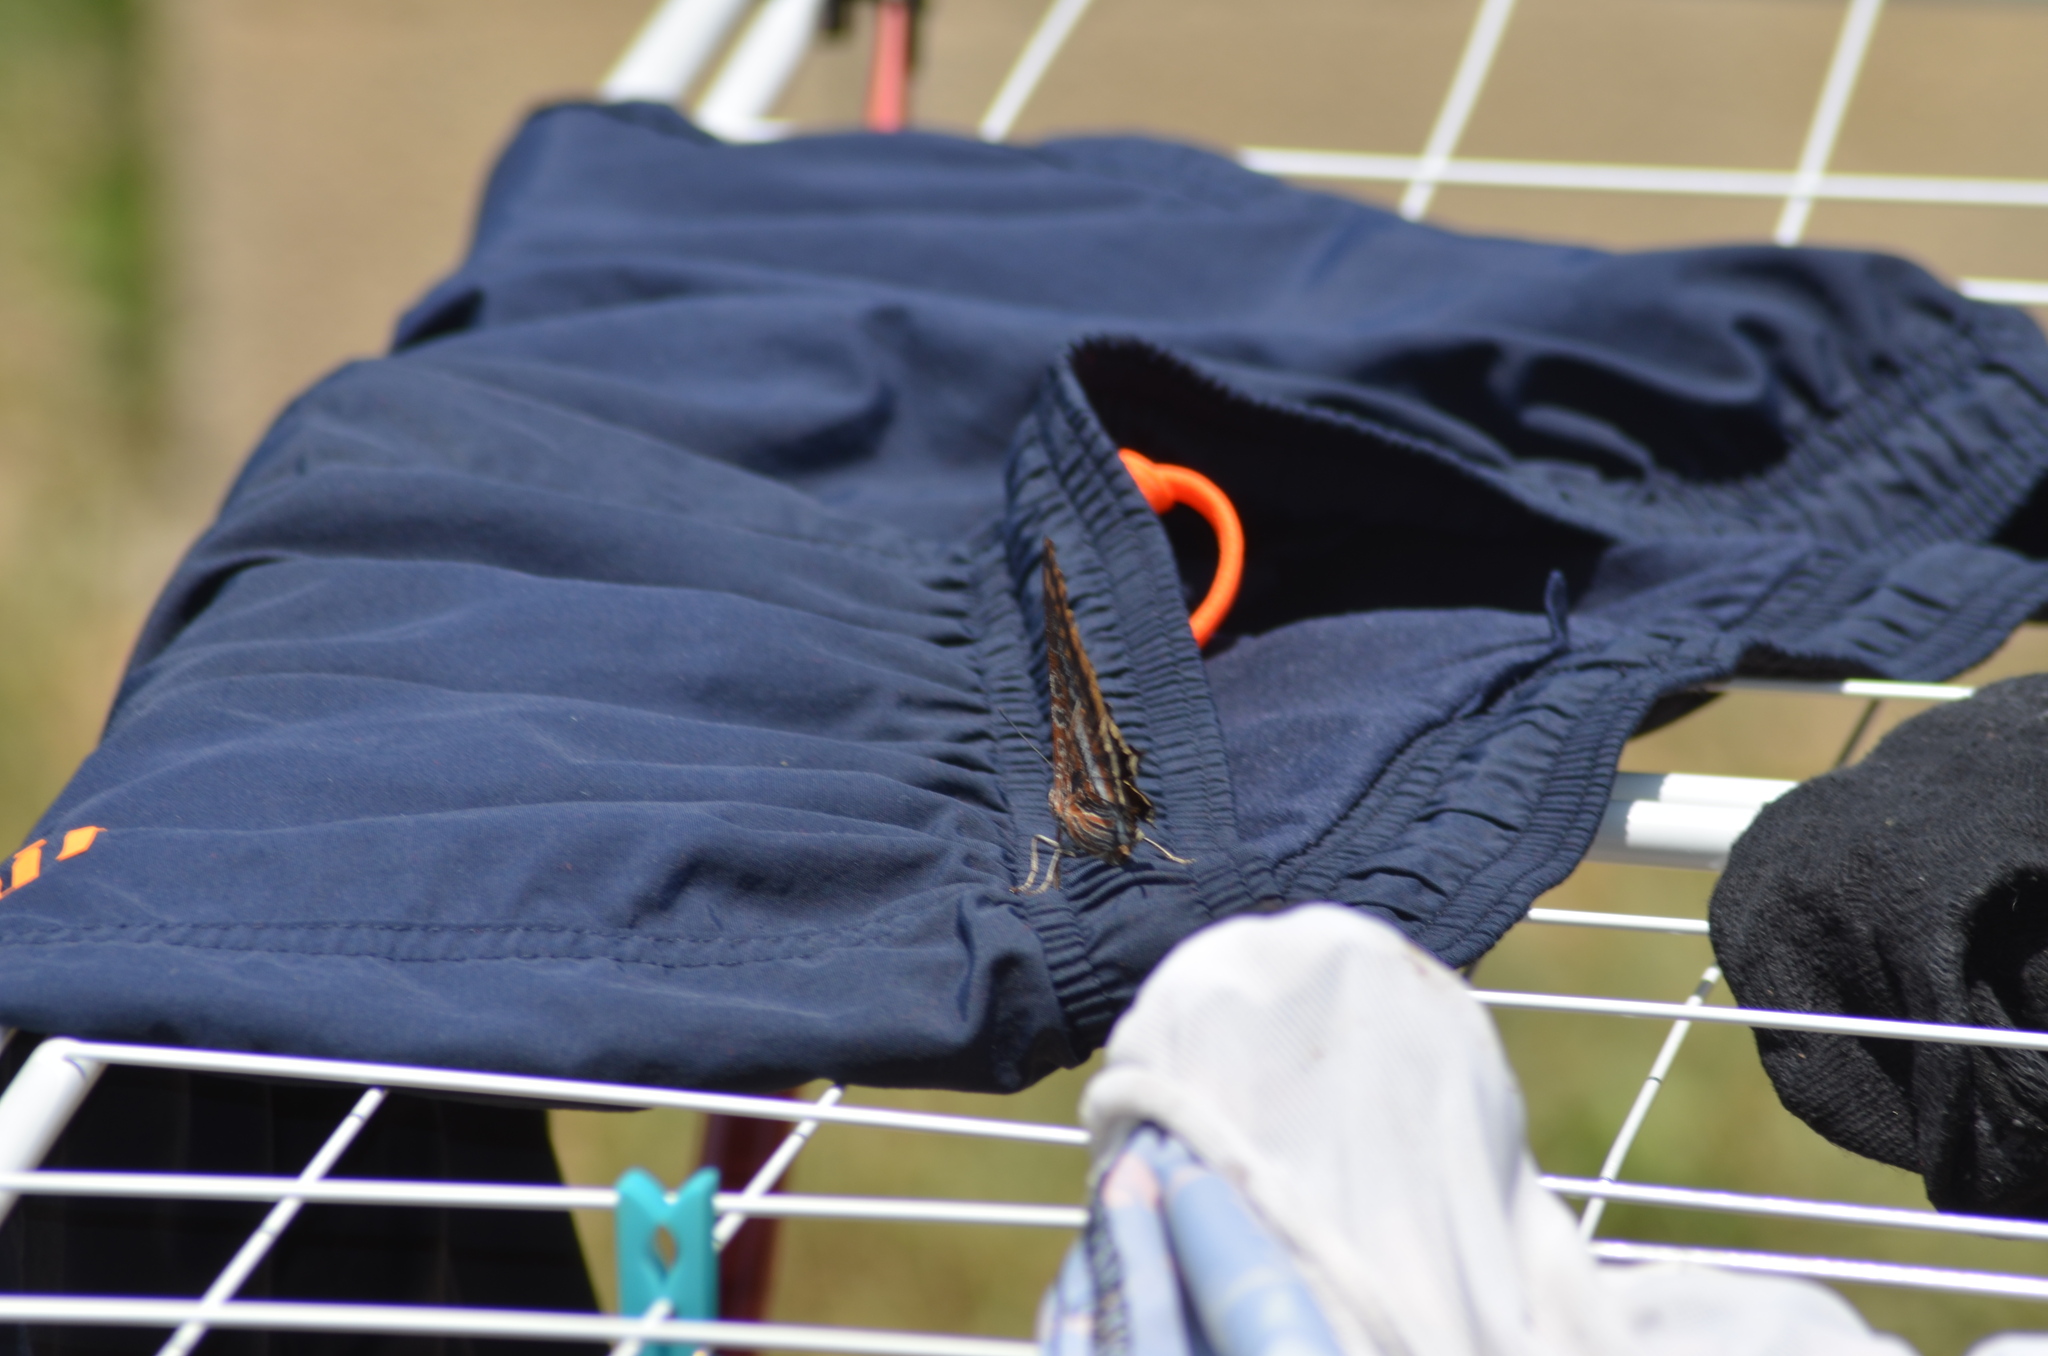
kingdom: Animalia
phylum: Arthropoda
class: Insecta
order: Lepidoptera
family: Nymphalidae
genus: Charaxes
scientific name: Charaxes jasius
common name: Two tailed pasha
